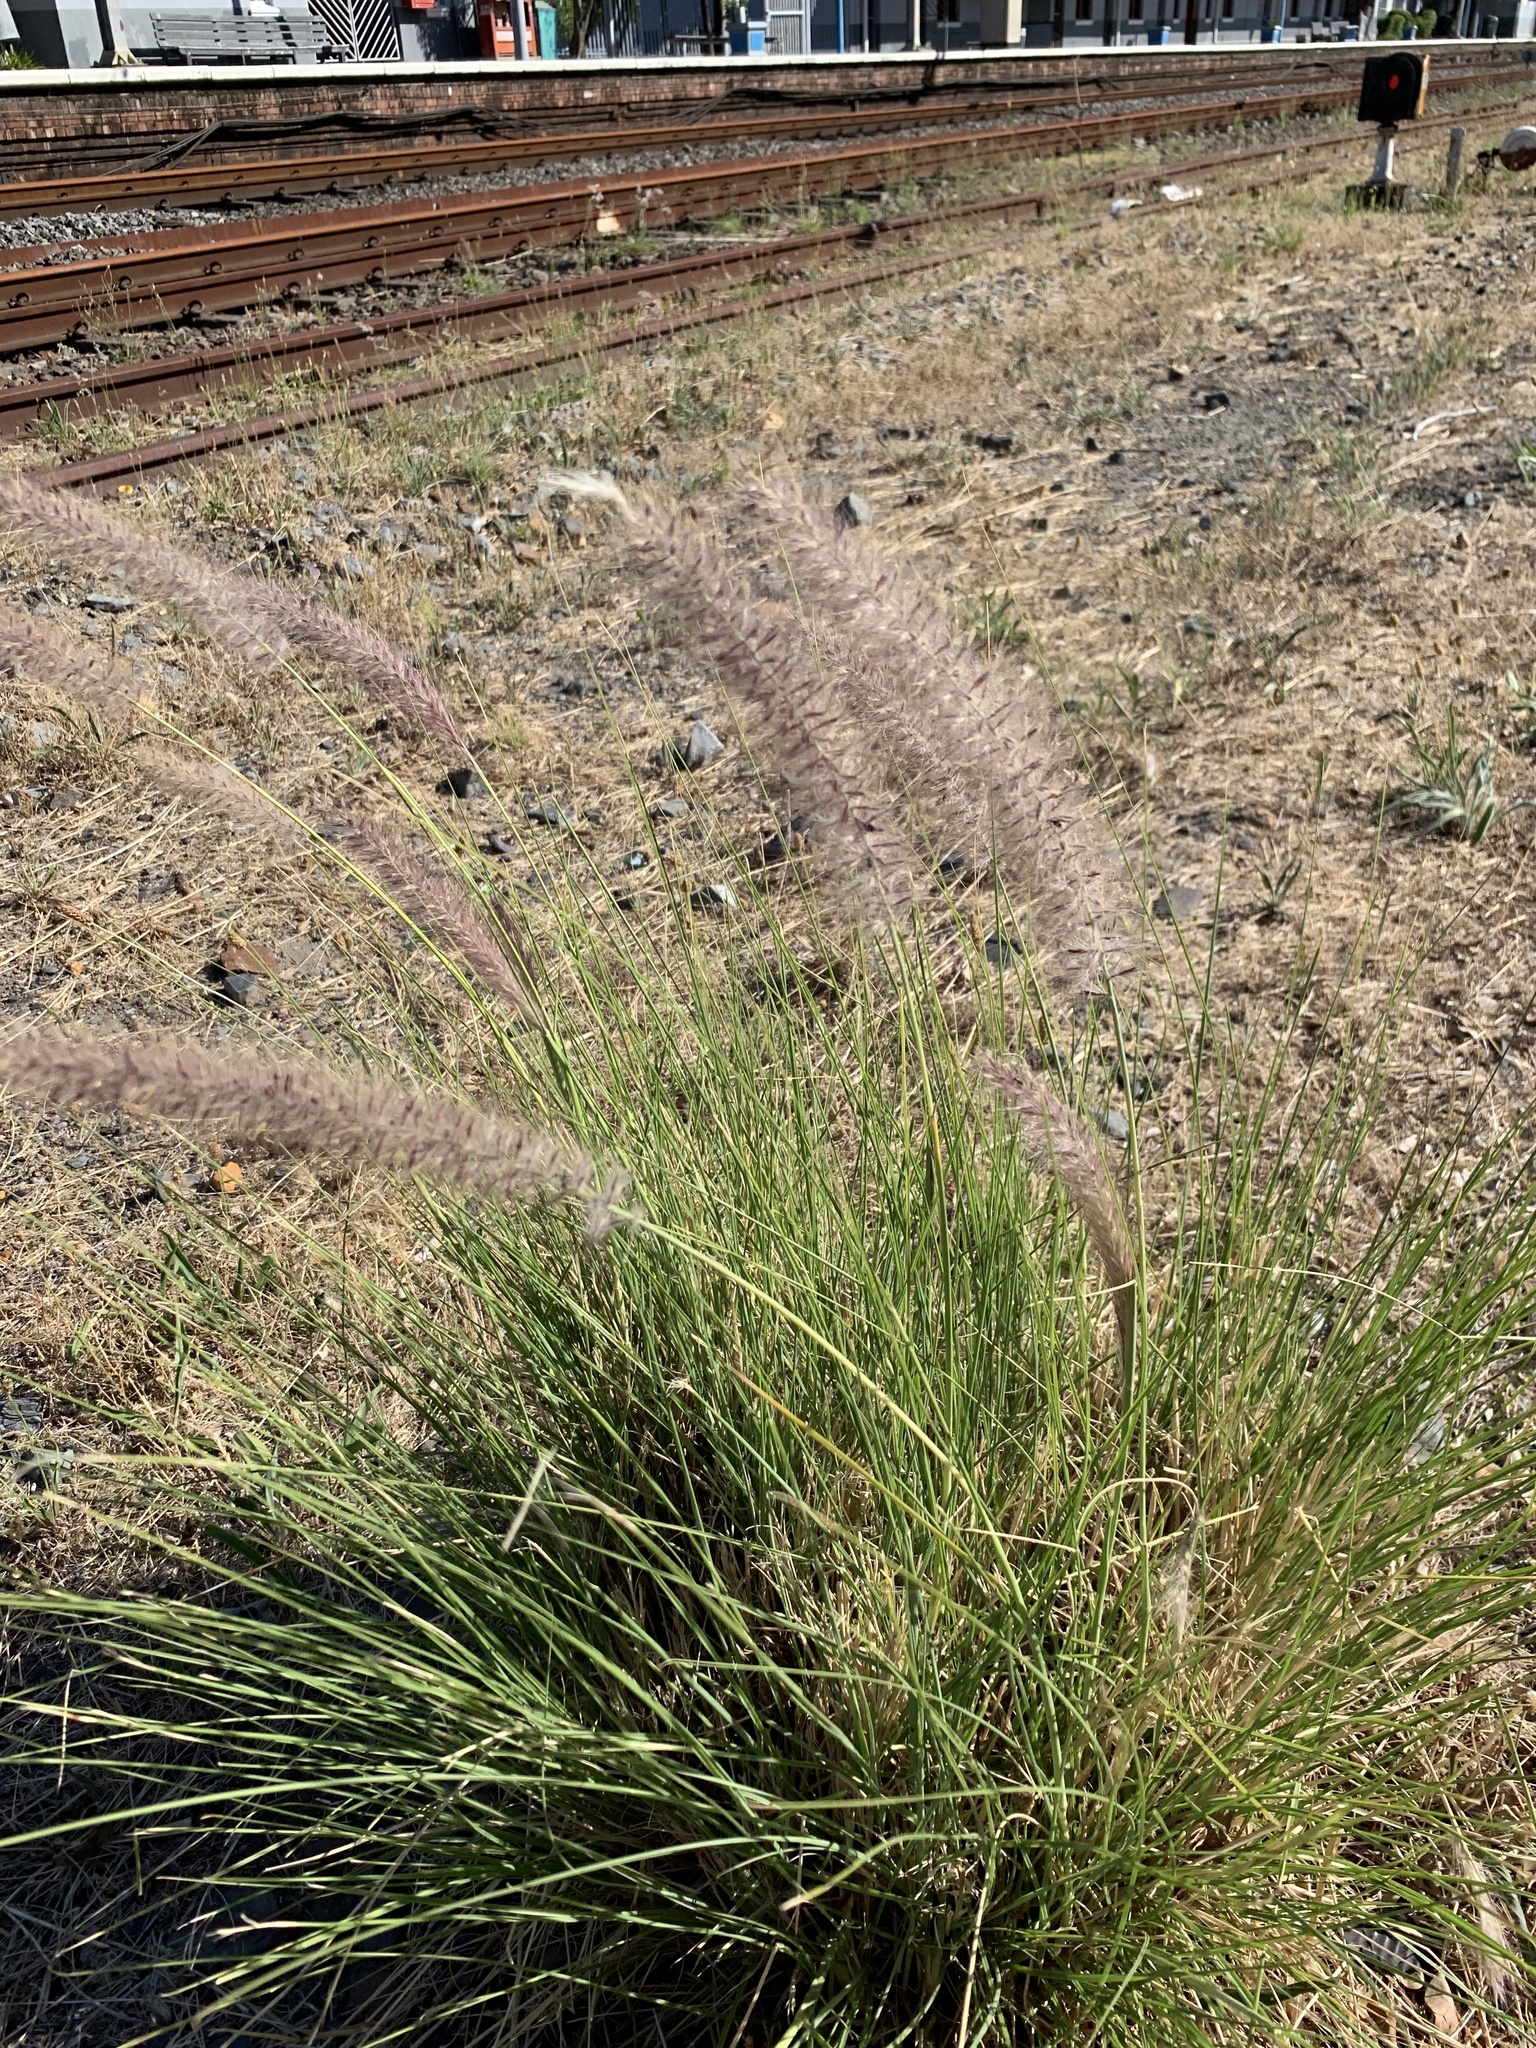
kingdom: Plantae
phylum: Tracheophyta
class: Liliopsida
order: Poales
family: Poaceae
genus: Cenchrus
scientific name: Cenchrus setaceus
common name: Crimson fountaingrass
